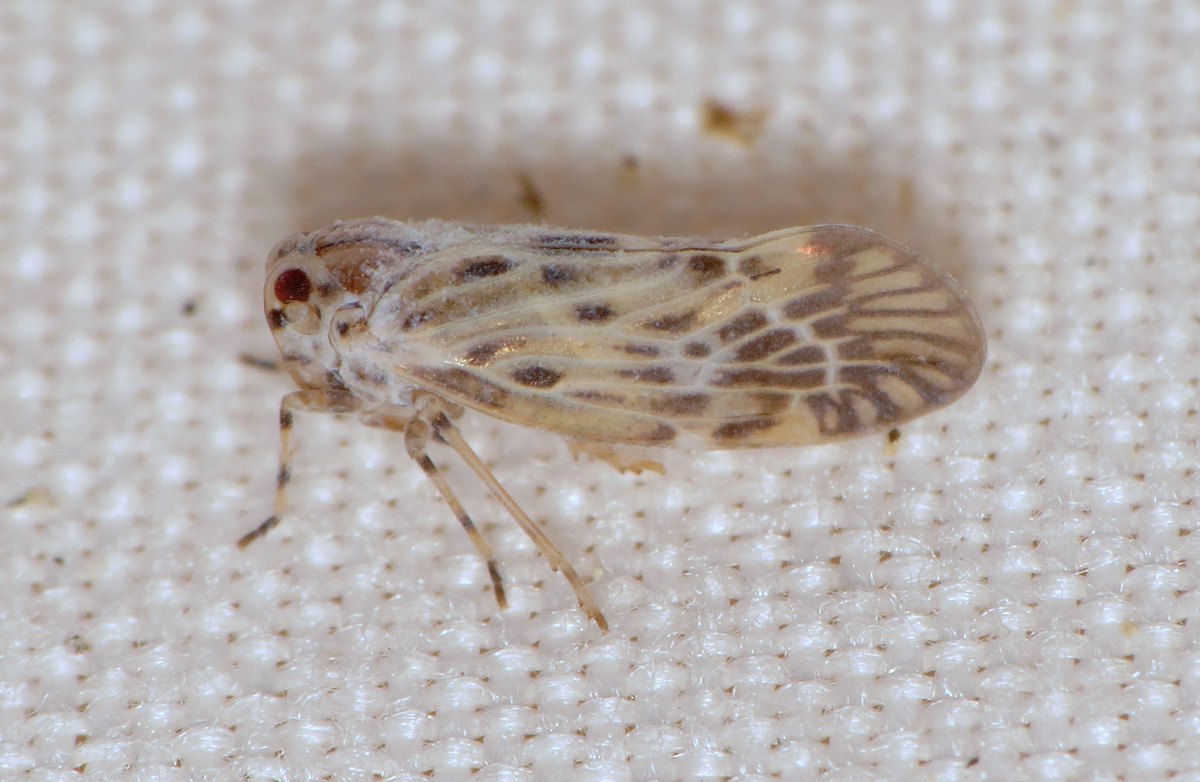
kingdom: Animalia
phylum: Arthropoda
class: Insecta
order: Hemiptera
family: Derbidae
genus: Cedusa
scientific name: Cedusa maculata
